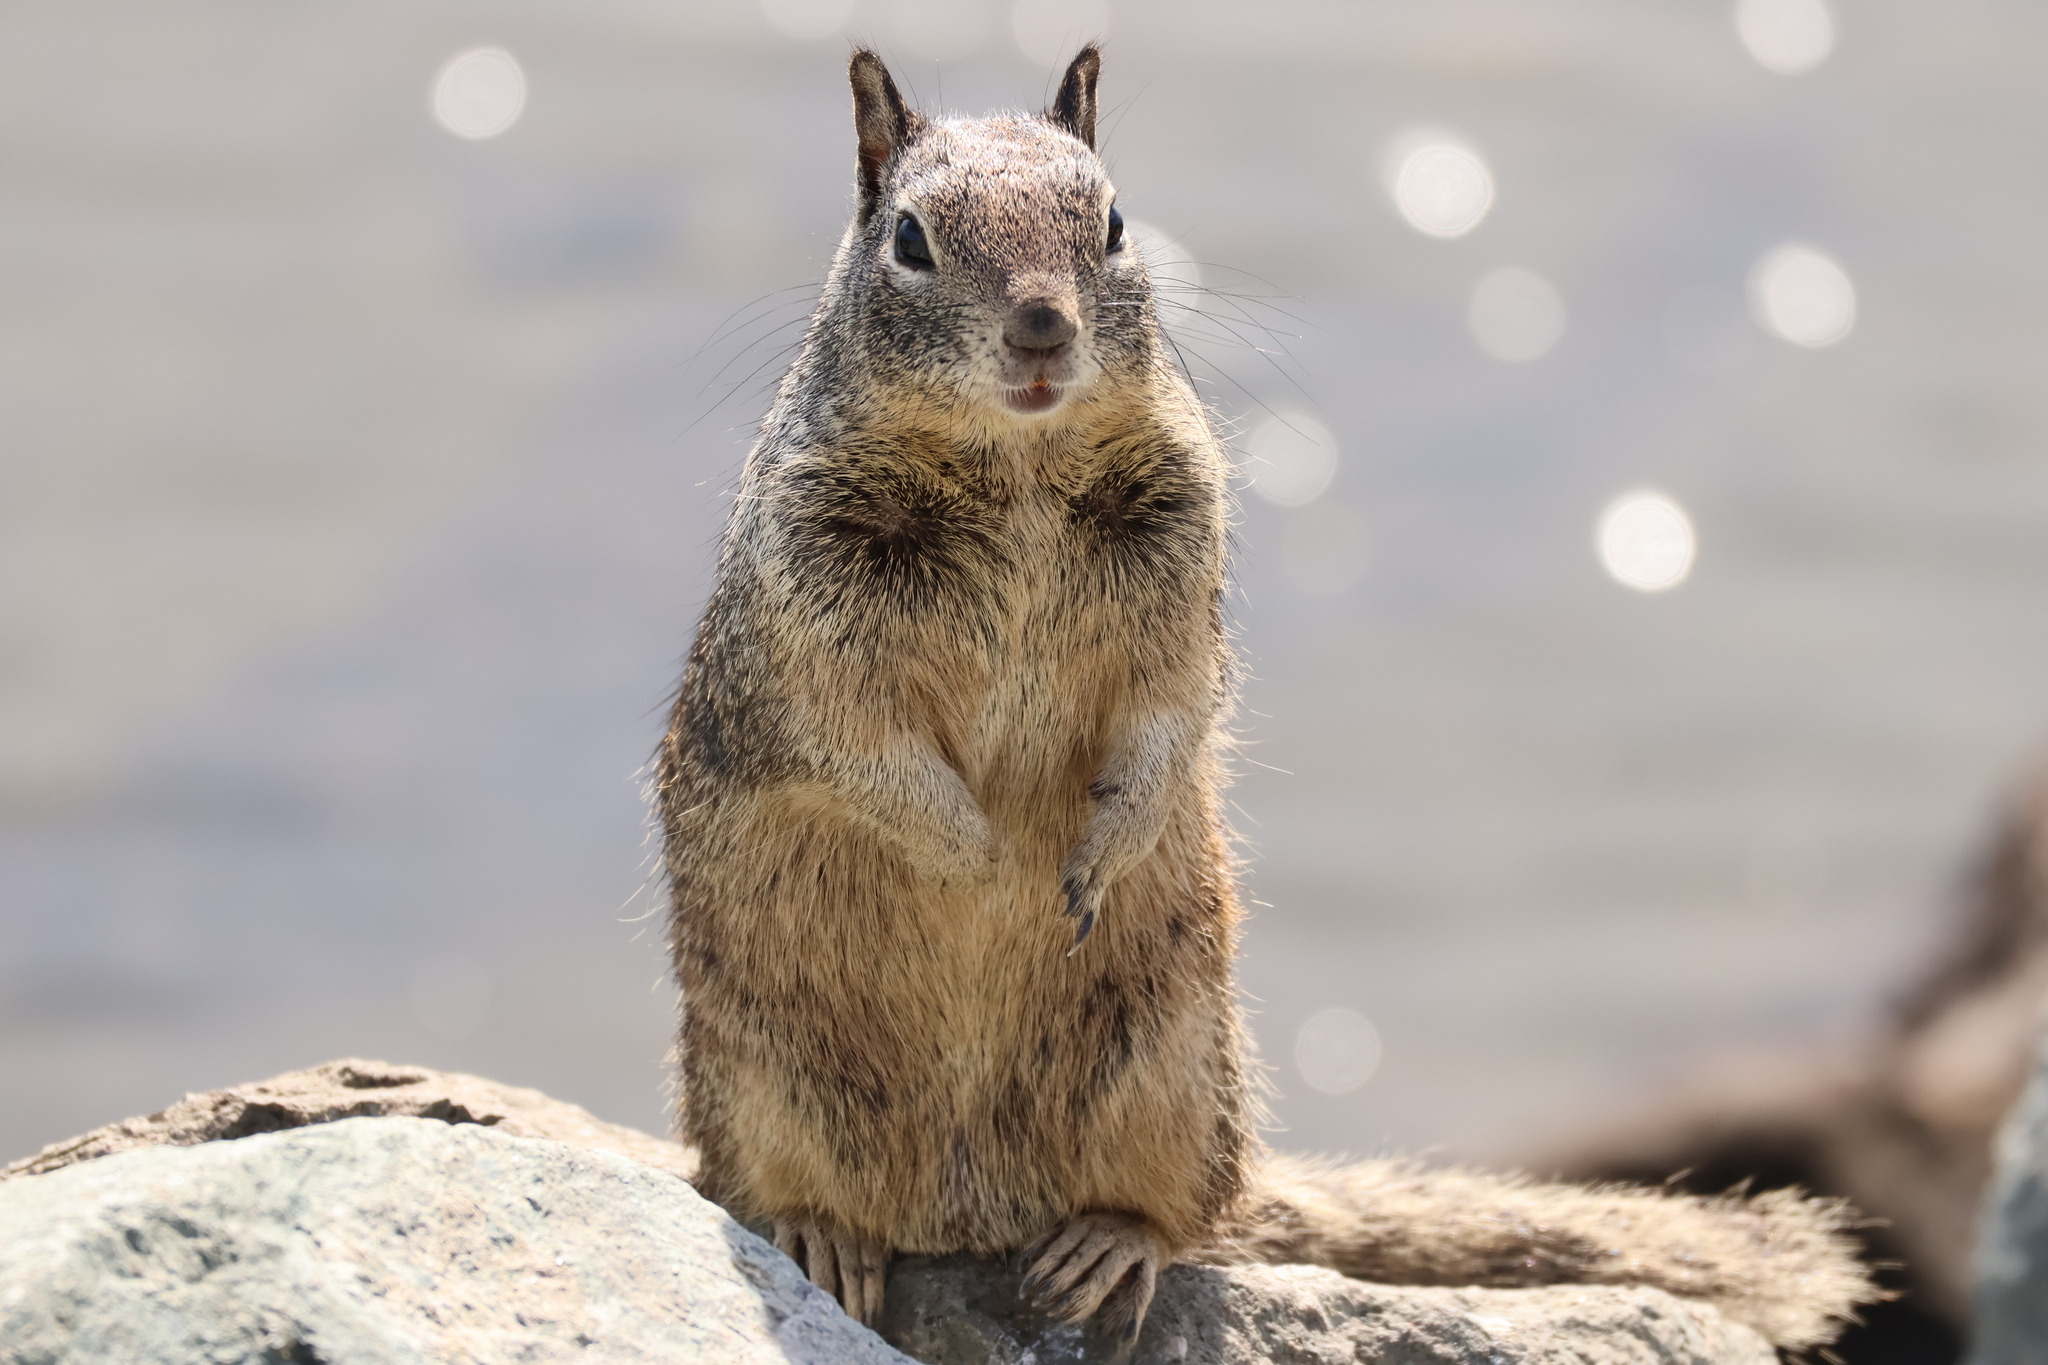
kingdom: Animalia
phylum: Chordata
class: Mammalia
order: Rodentia
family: Sciuridae
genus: Otospermophilus
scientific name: Otospermophilus beecheyi
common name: California ground squirrel
